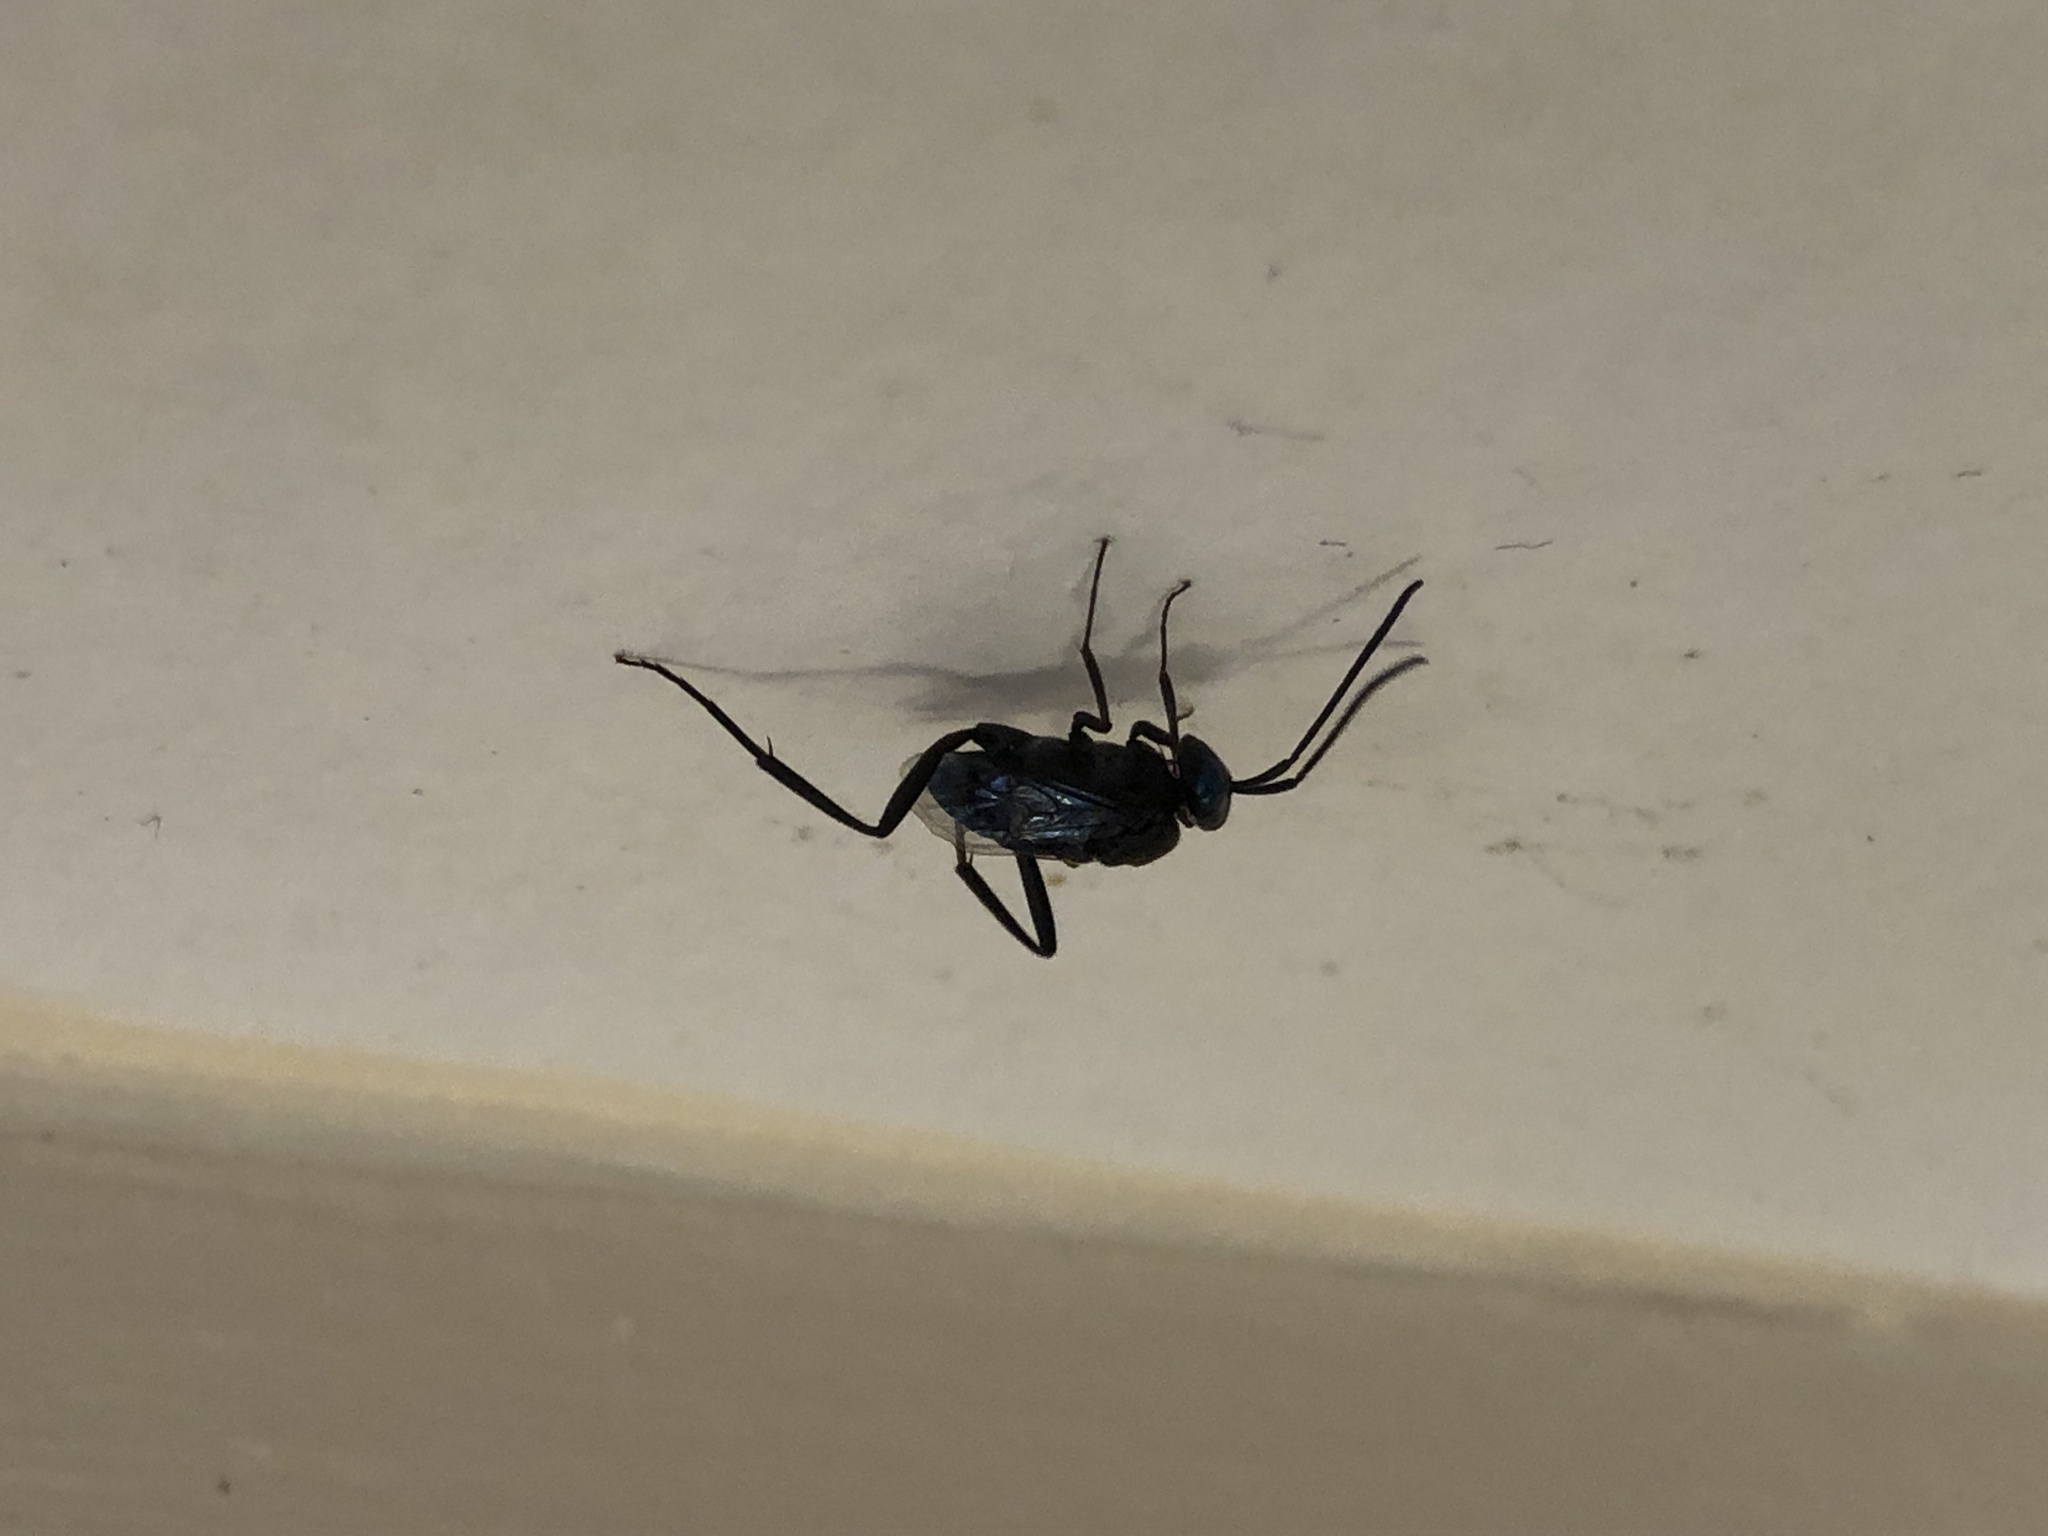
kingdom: Animalia
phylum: Arthropoda
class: Insecta
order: Hymenoptera
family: Evaniidae
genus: Evania
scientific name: Evania appendigaster
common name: Ensign wasp
